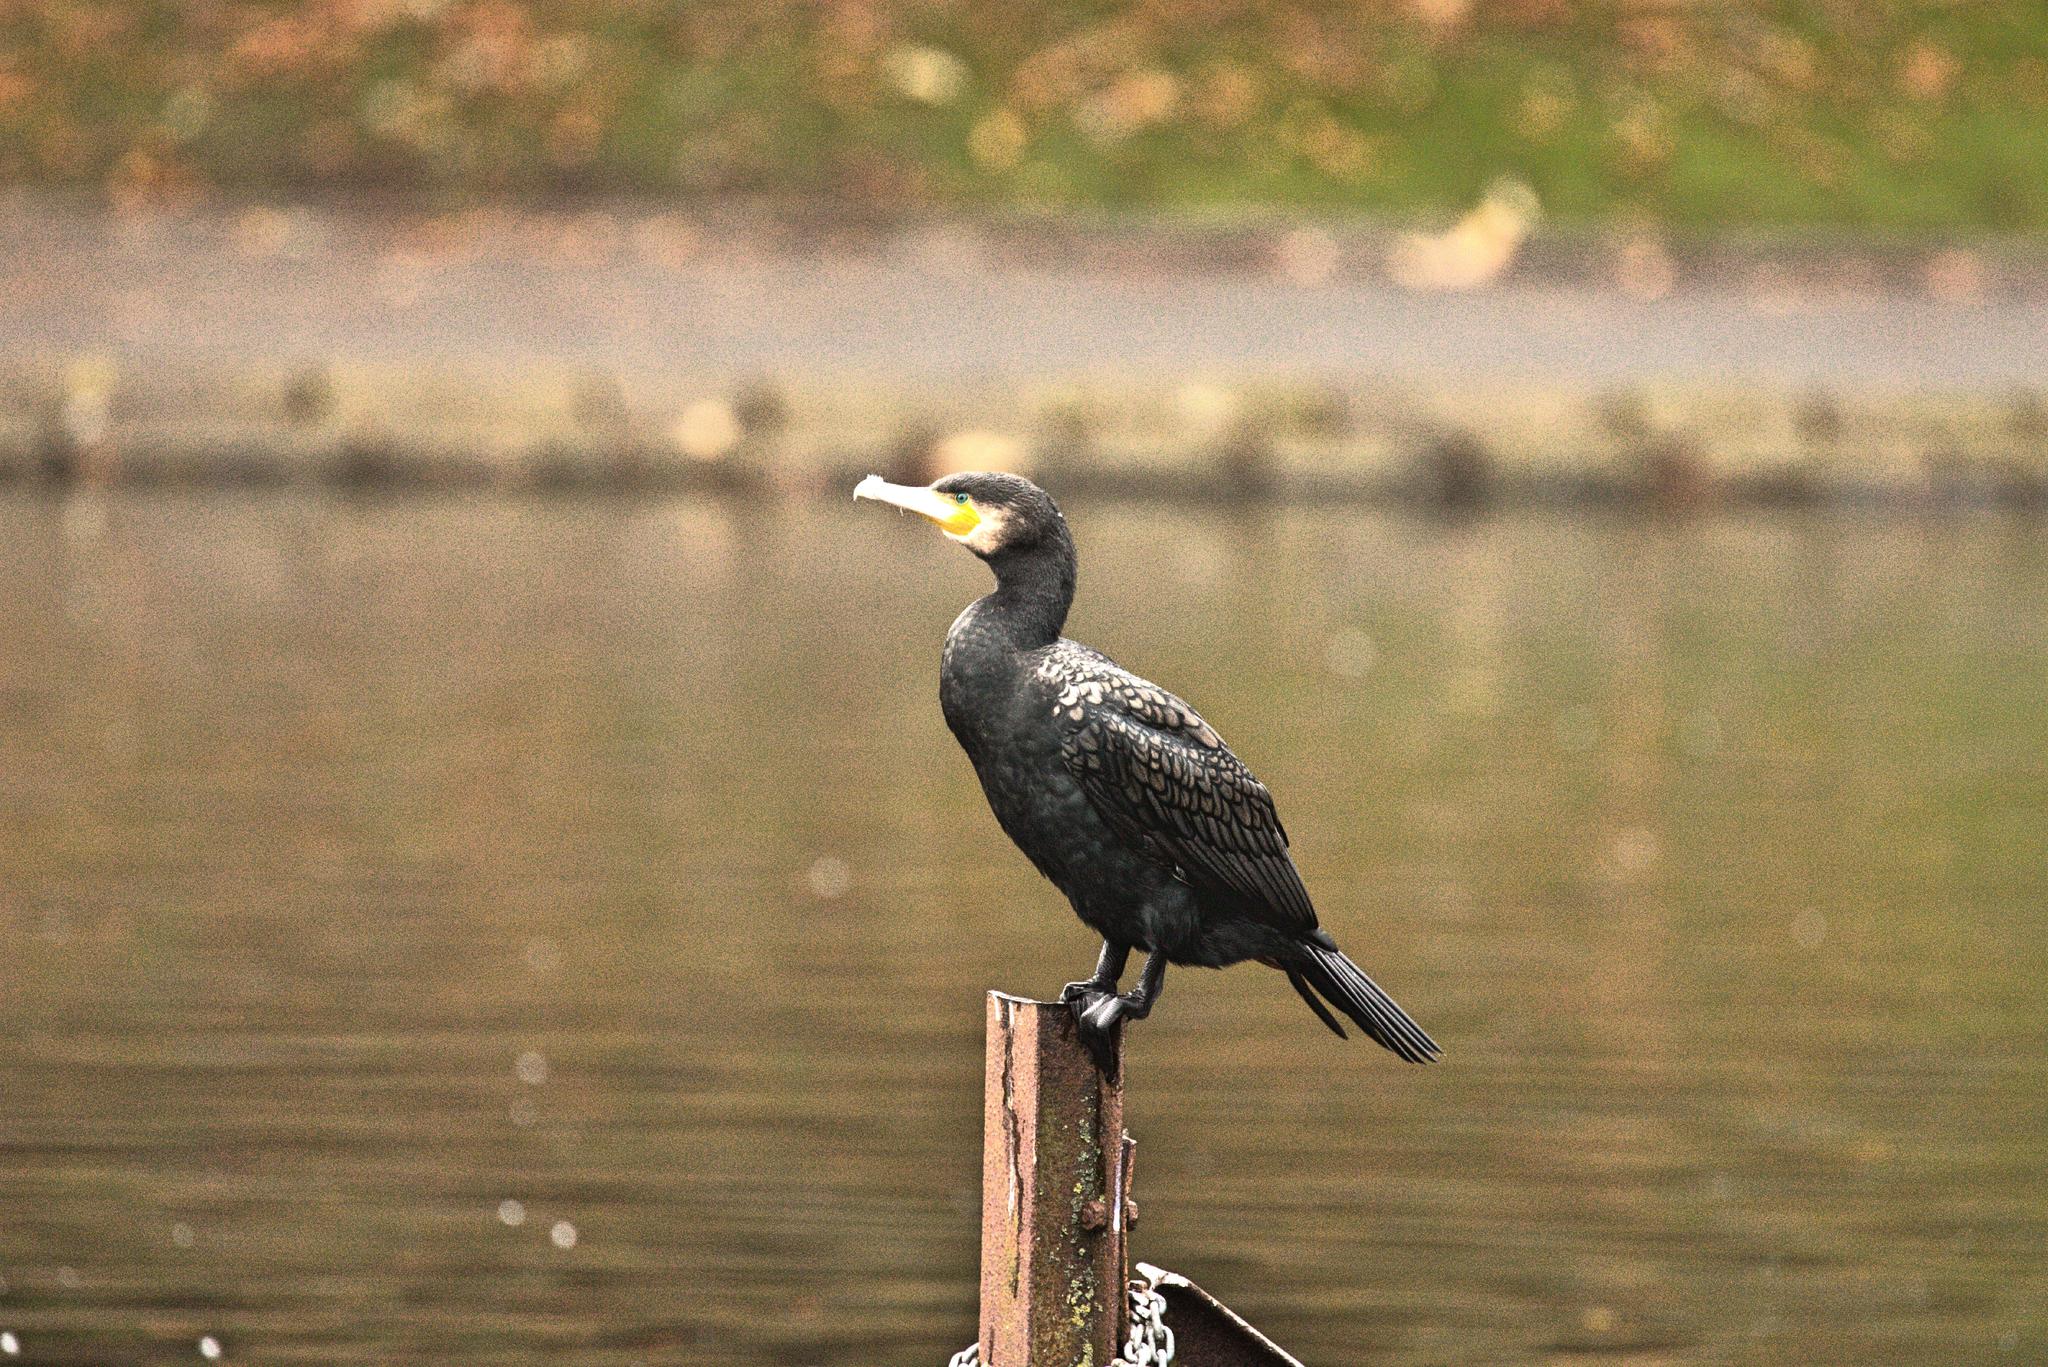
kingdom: Animalia
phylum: Chordata
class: Aves
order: Suliformes
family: Phalacrocoracidae
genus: Phalacrocorax
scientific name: Phalacrocorax carbo
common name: Great cormorant
